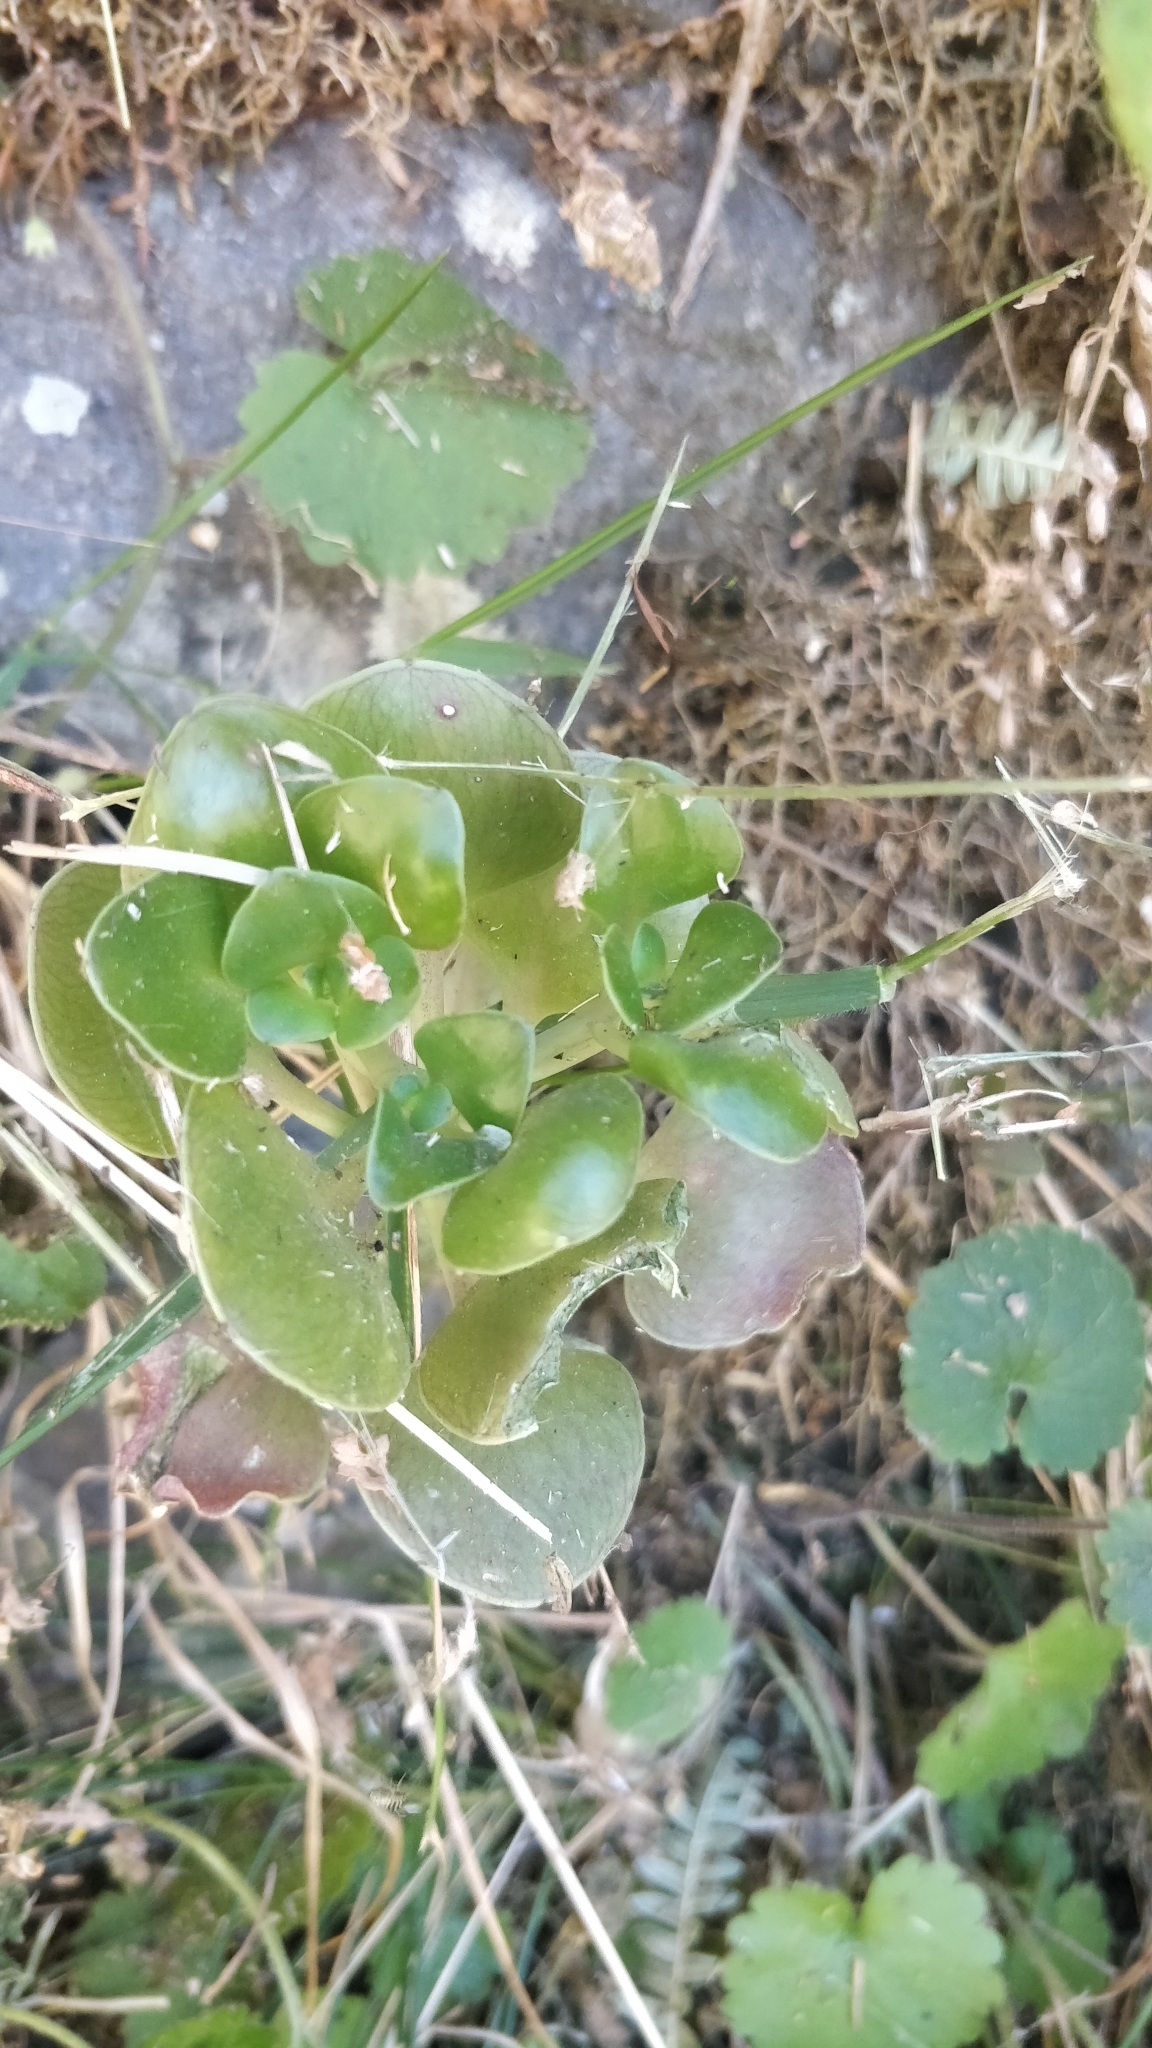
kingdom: Plantae
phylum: Tracheophyta
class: Magnoliopsida
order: Saxifragales
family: Crassulaceae
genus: Aichryson
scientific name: Aichryson divaricatum
